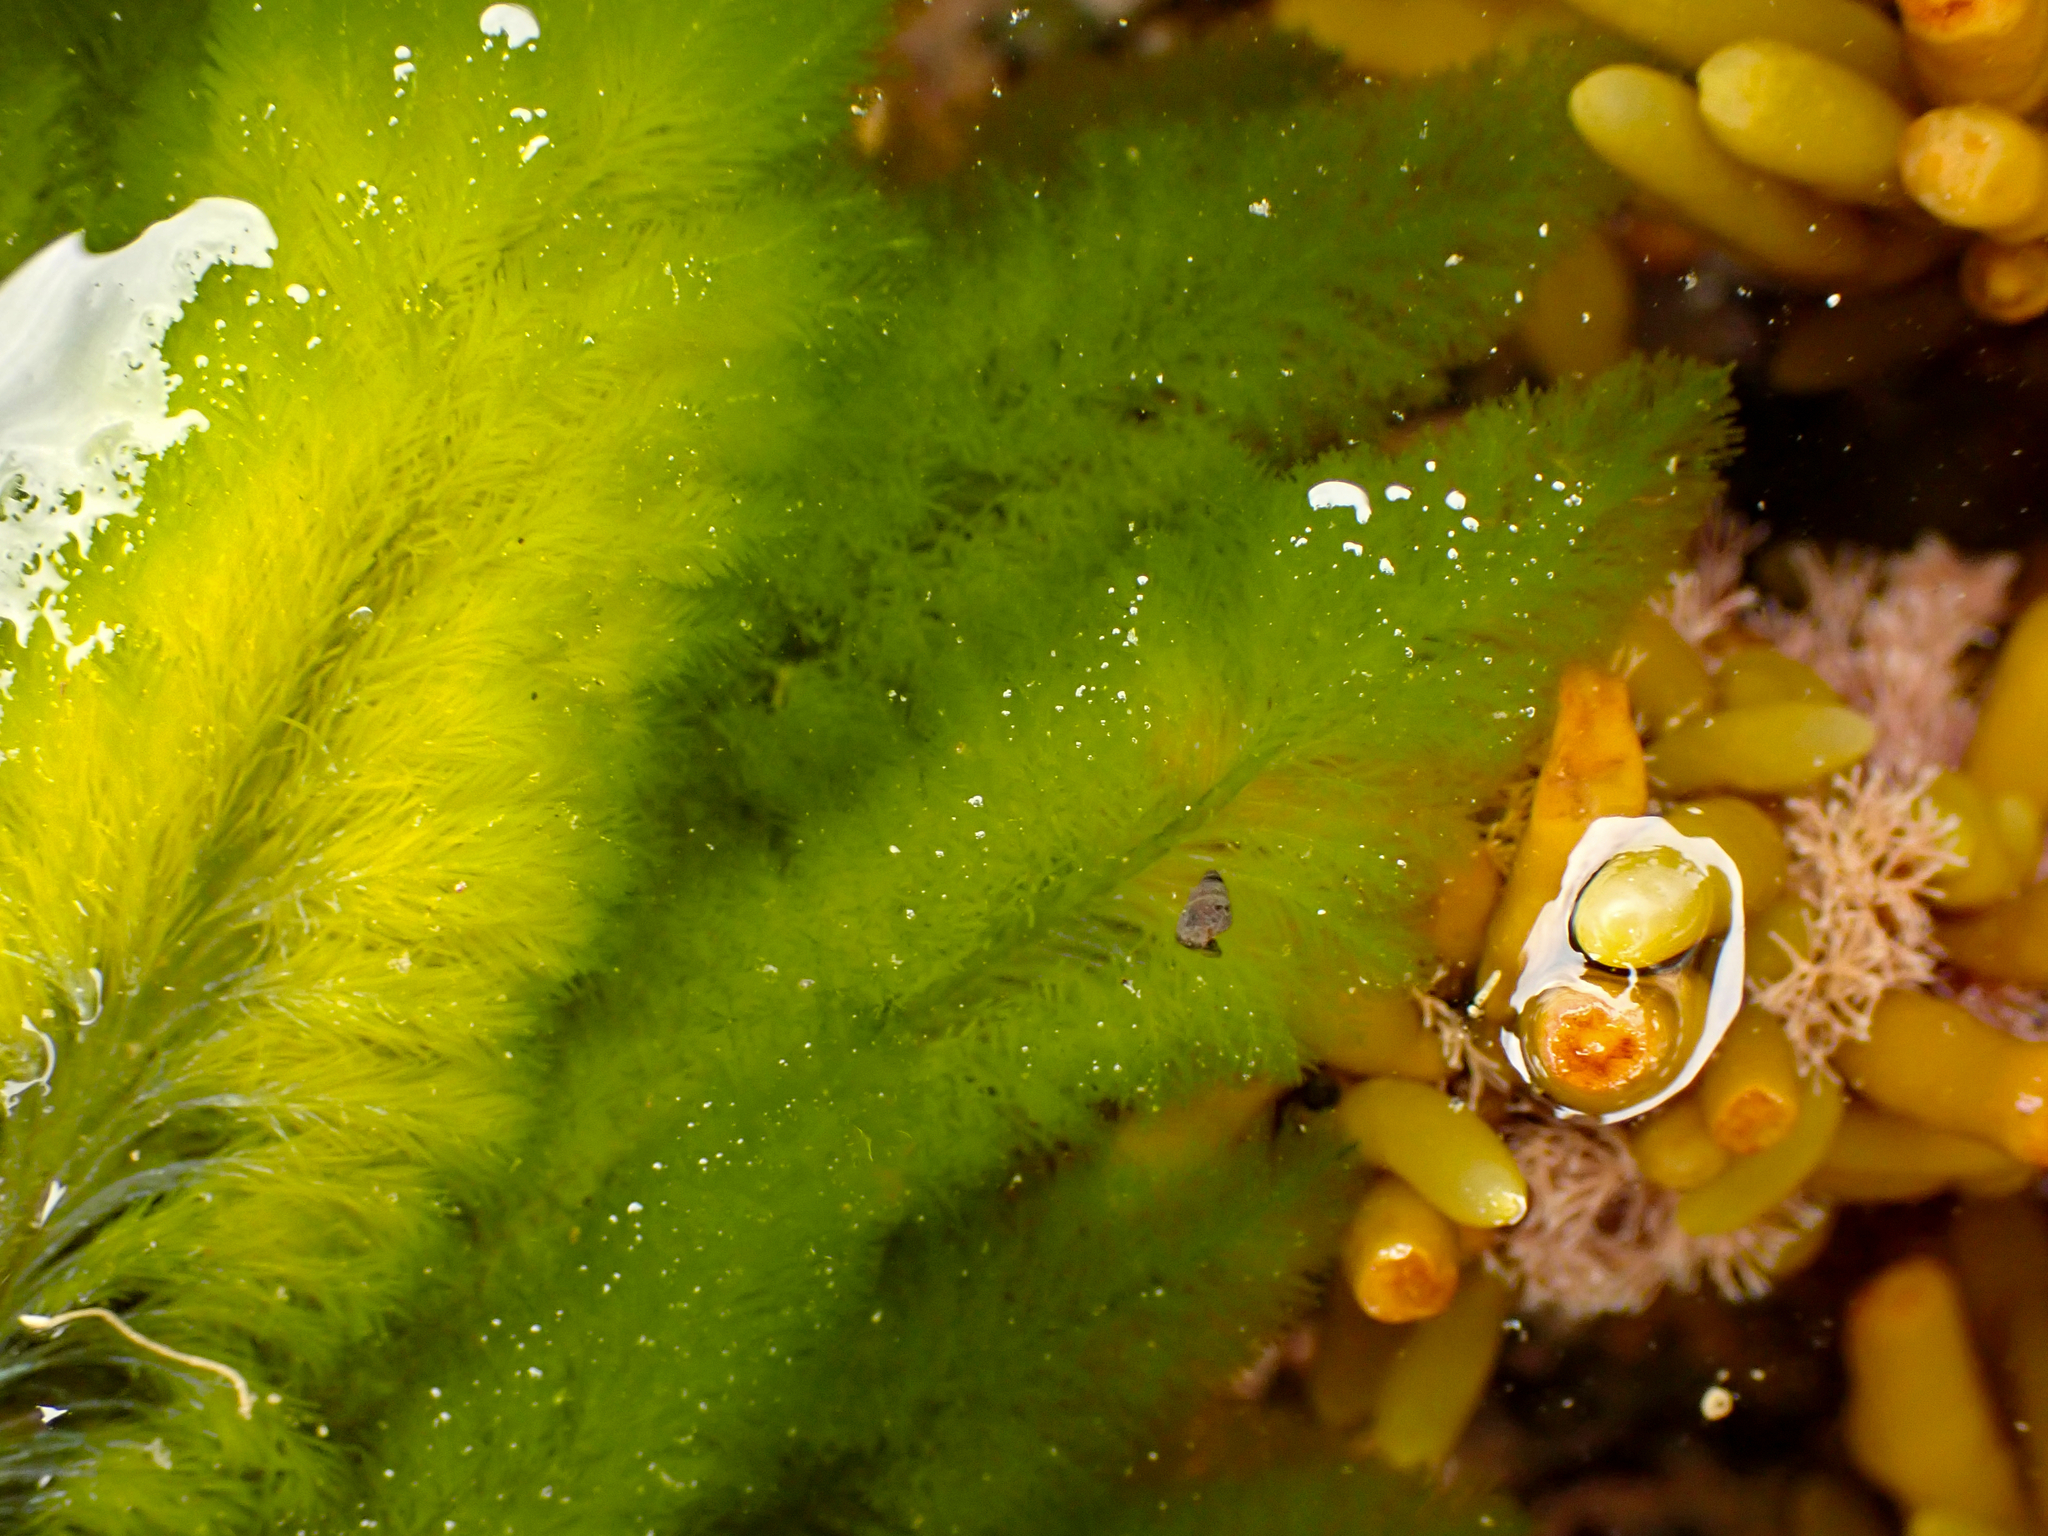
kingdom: Plantae
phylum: Chlorophyta
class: Ulvophyceae
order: Bryopsidales
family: Bryopsidaceae
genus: Bryopsis
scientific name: Bryopsis vestita
